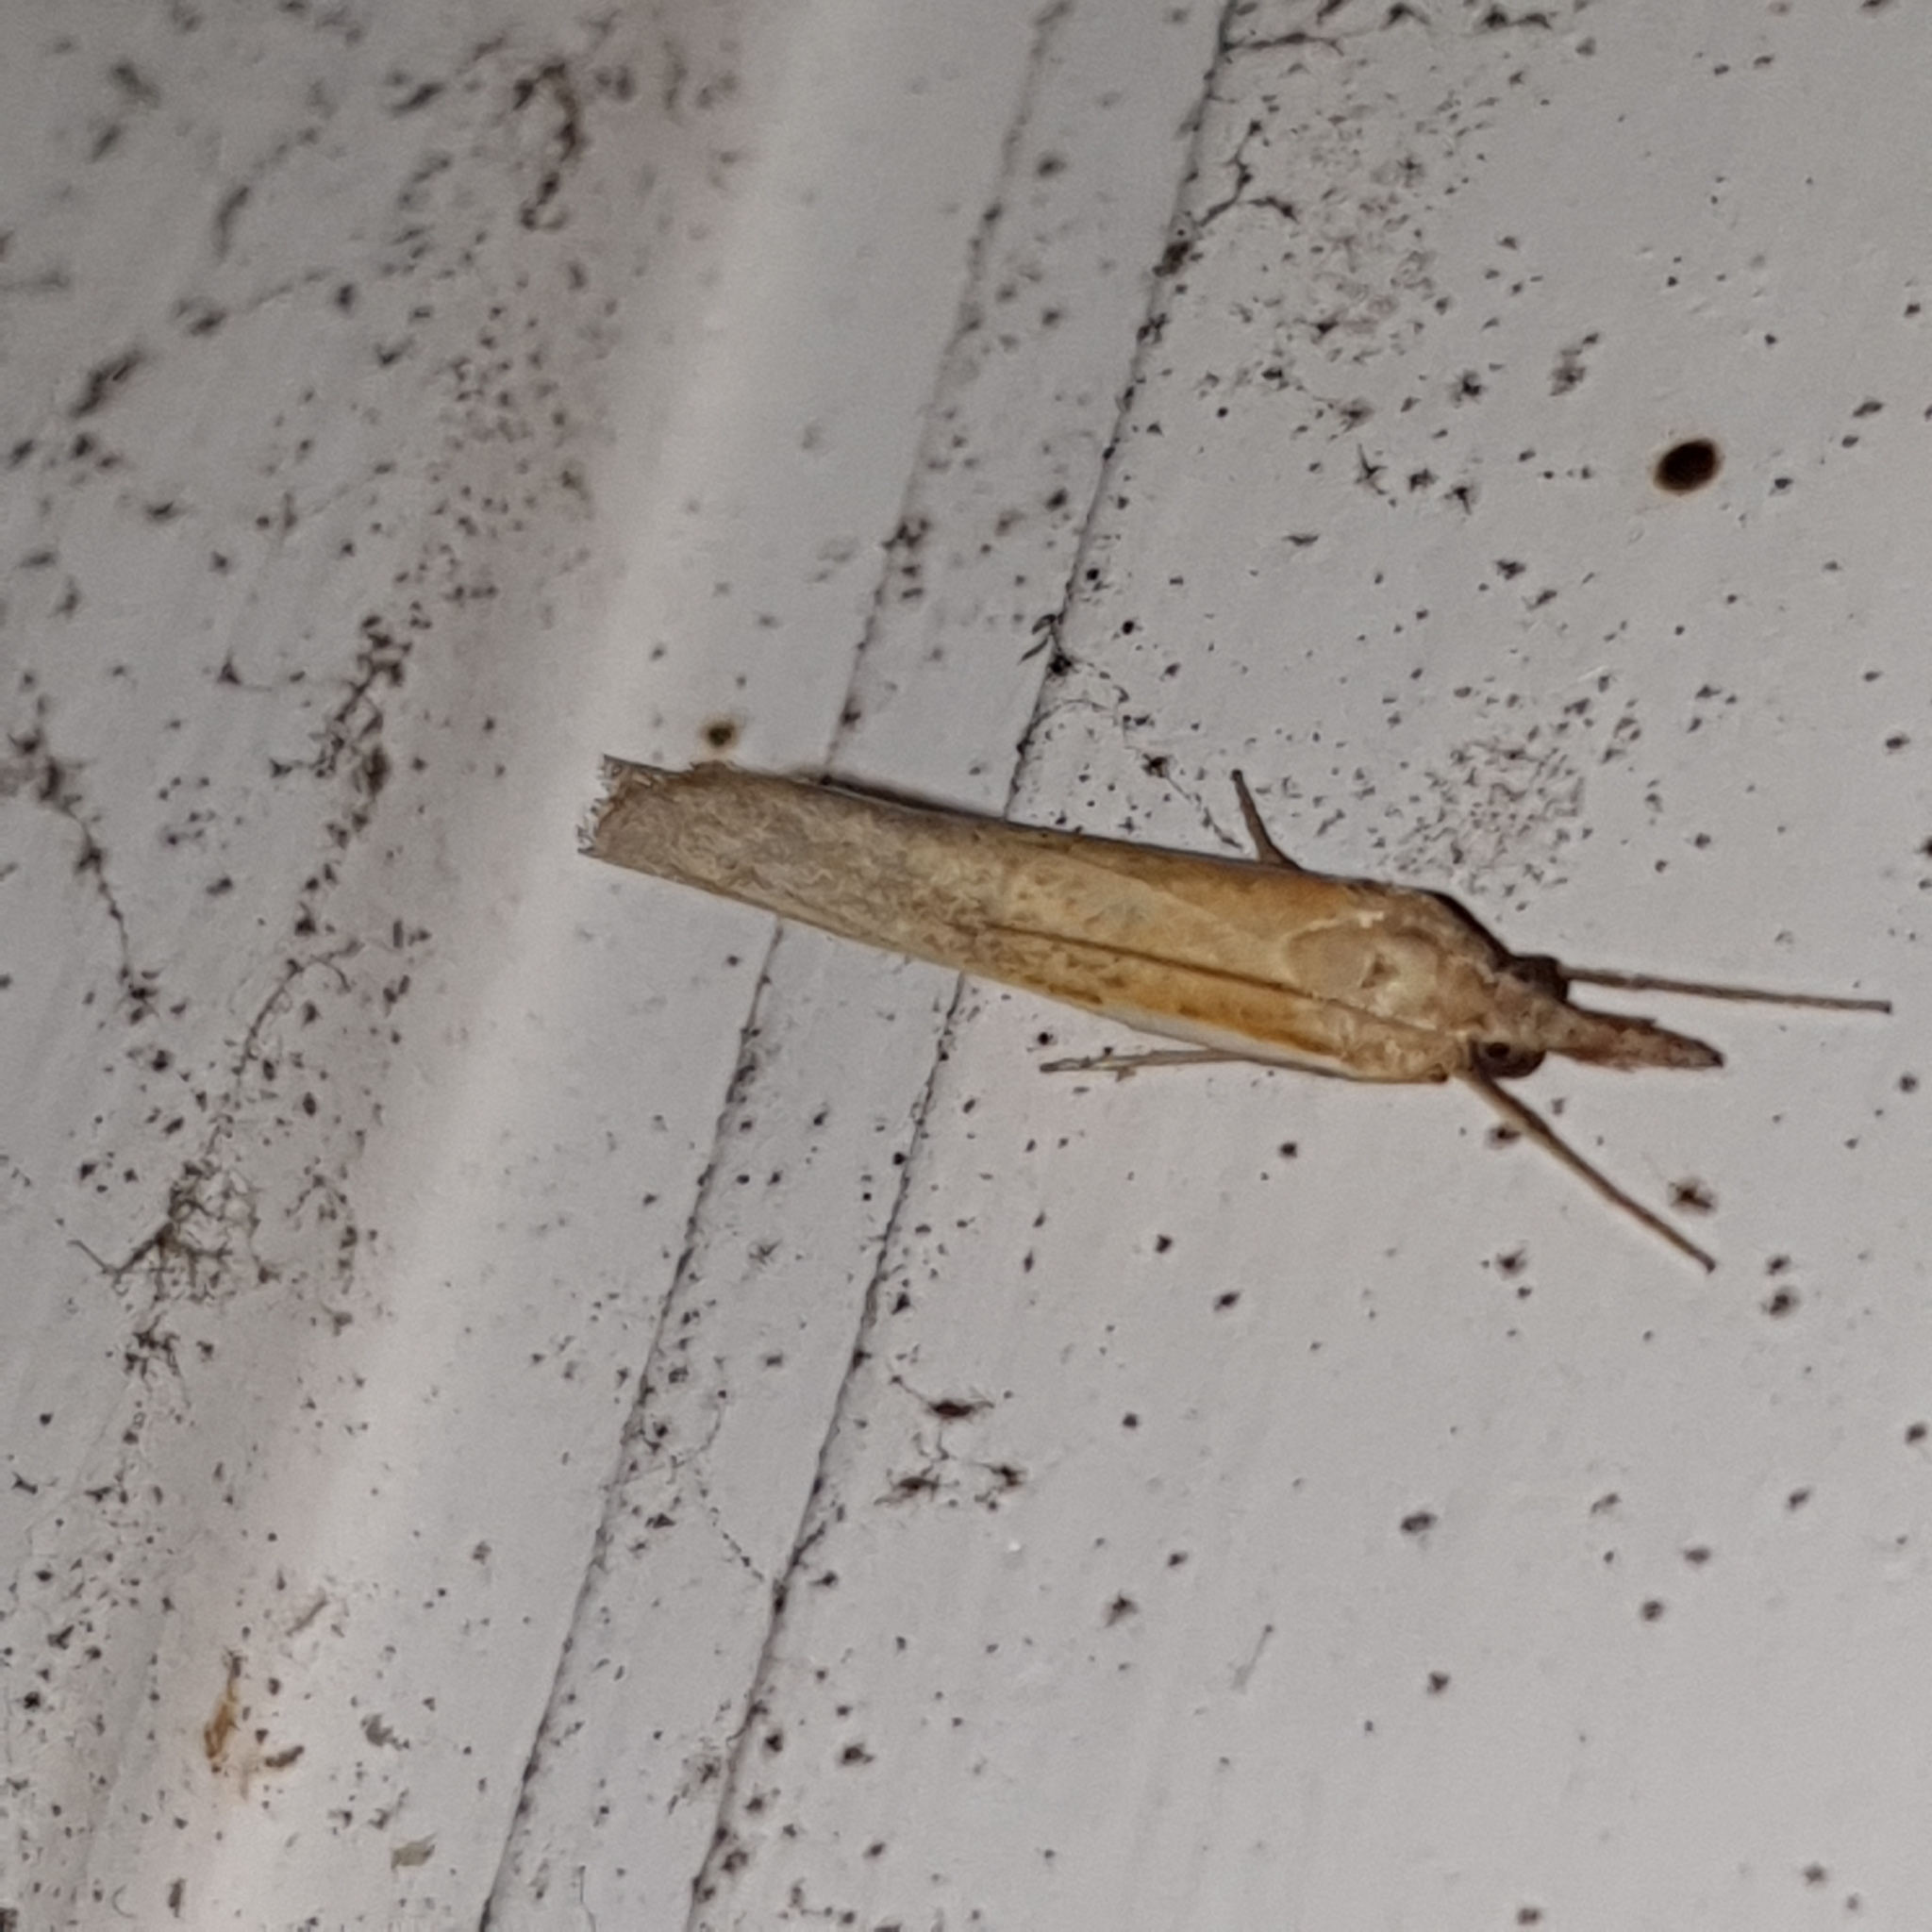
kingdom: Animalia
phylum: Arthropoda
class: Insecta
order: Lepidoptera
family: Crambidae
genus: Agriphila
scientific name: Agriphila tristellus
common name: Common grass-veneer
